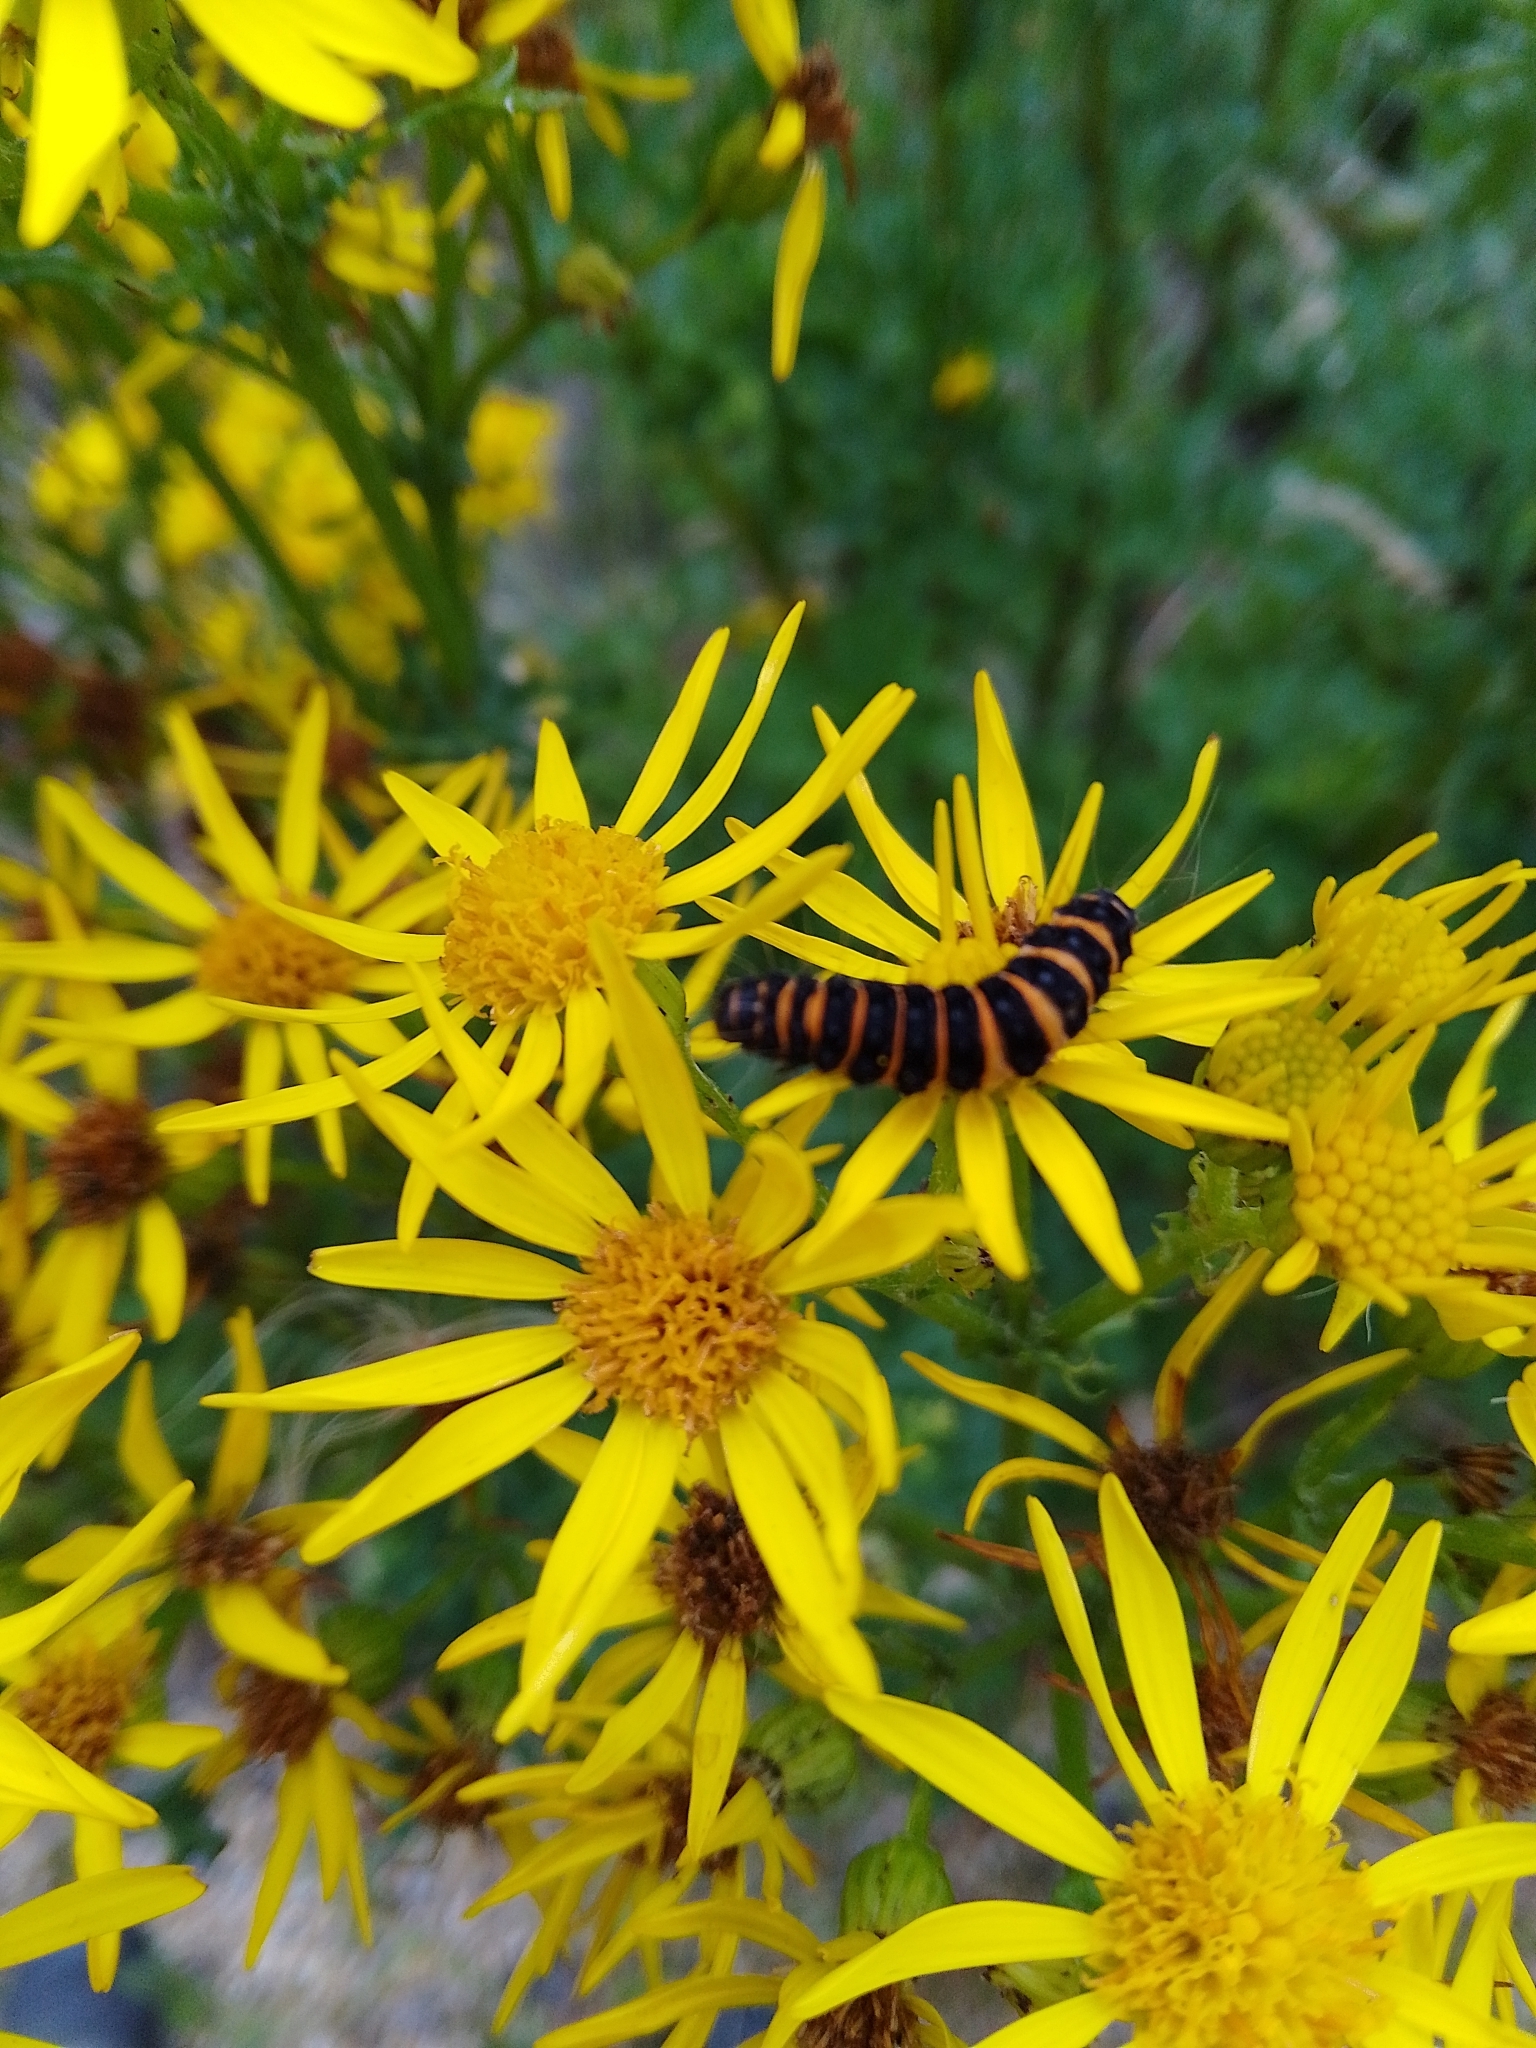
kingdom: Animalia
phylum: Arthropoda
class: Insecta
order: Lepidoptera
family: Erebidae
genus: Tyria
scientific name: Tyria jacobaeae
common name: Cinnabar
